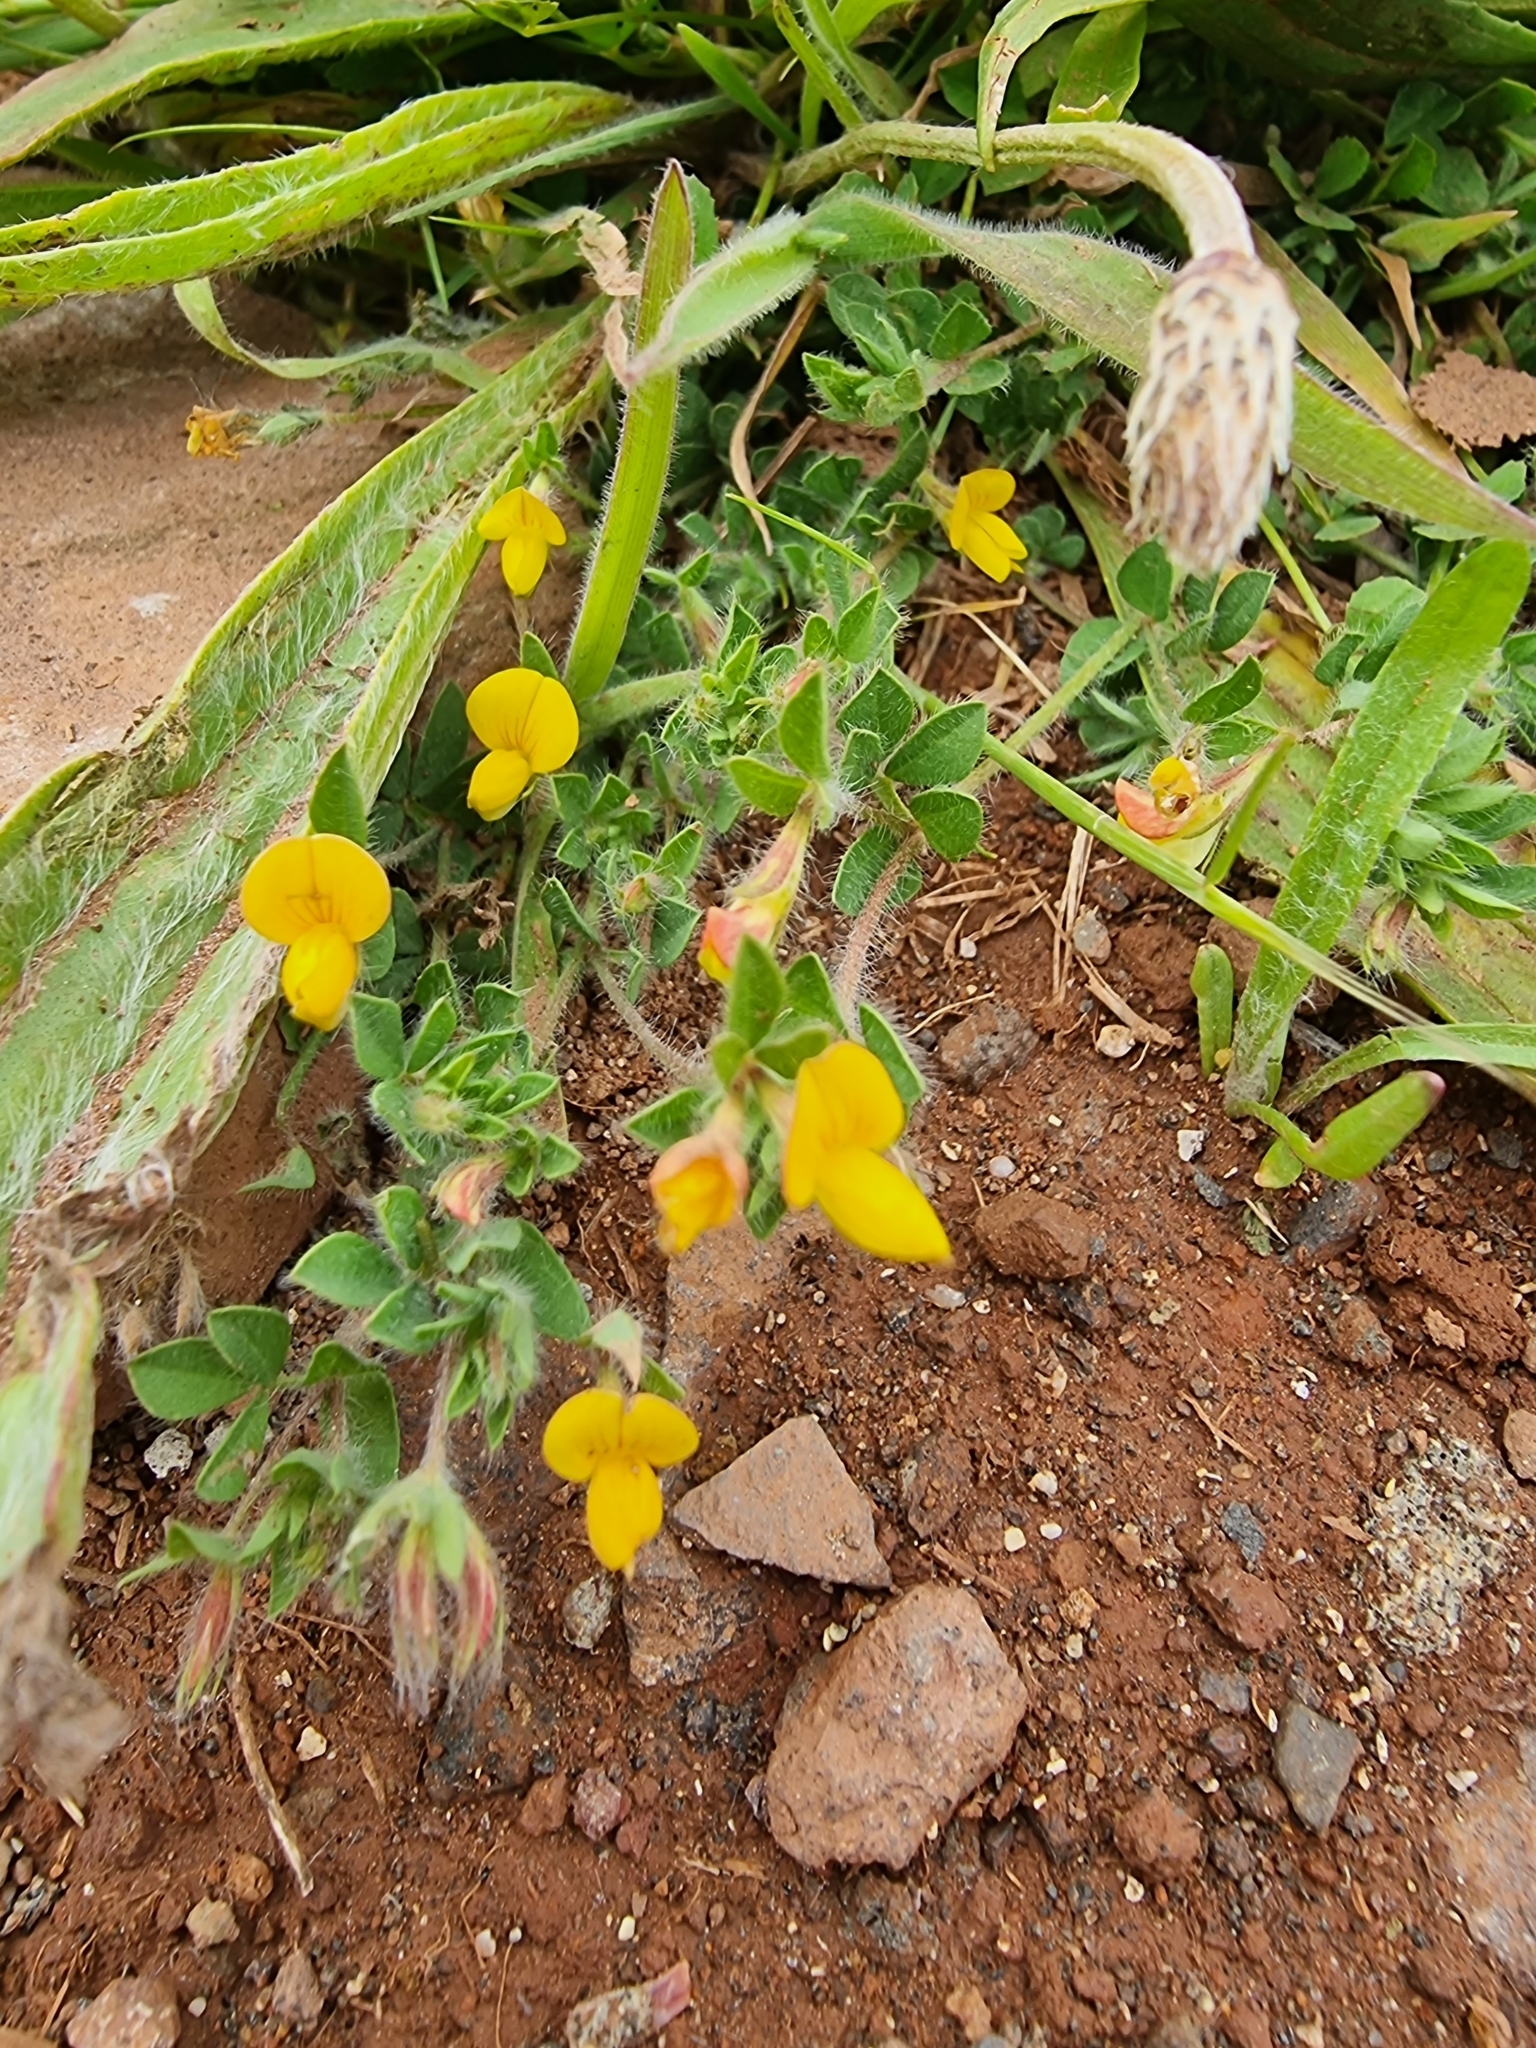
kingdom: Plantae
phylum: Tracheophyta
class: Magnoliopsida
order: Fabales
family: Fabaceae
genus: Lotus
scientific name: Lotus hispidus
